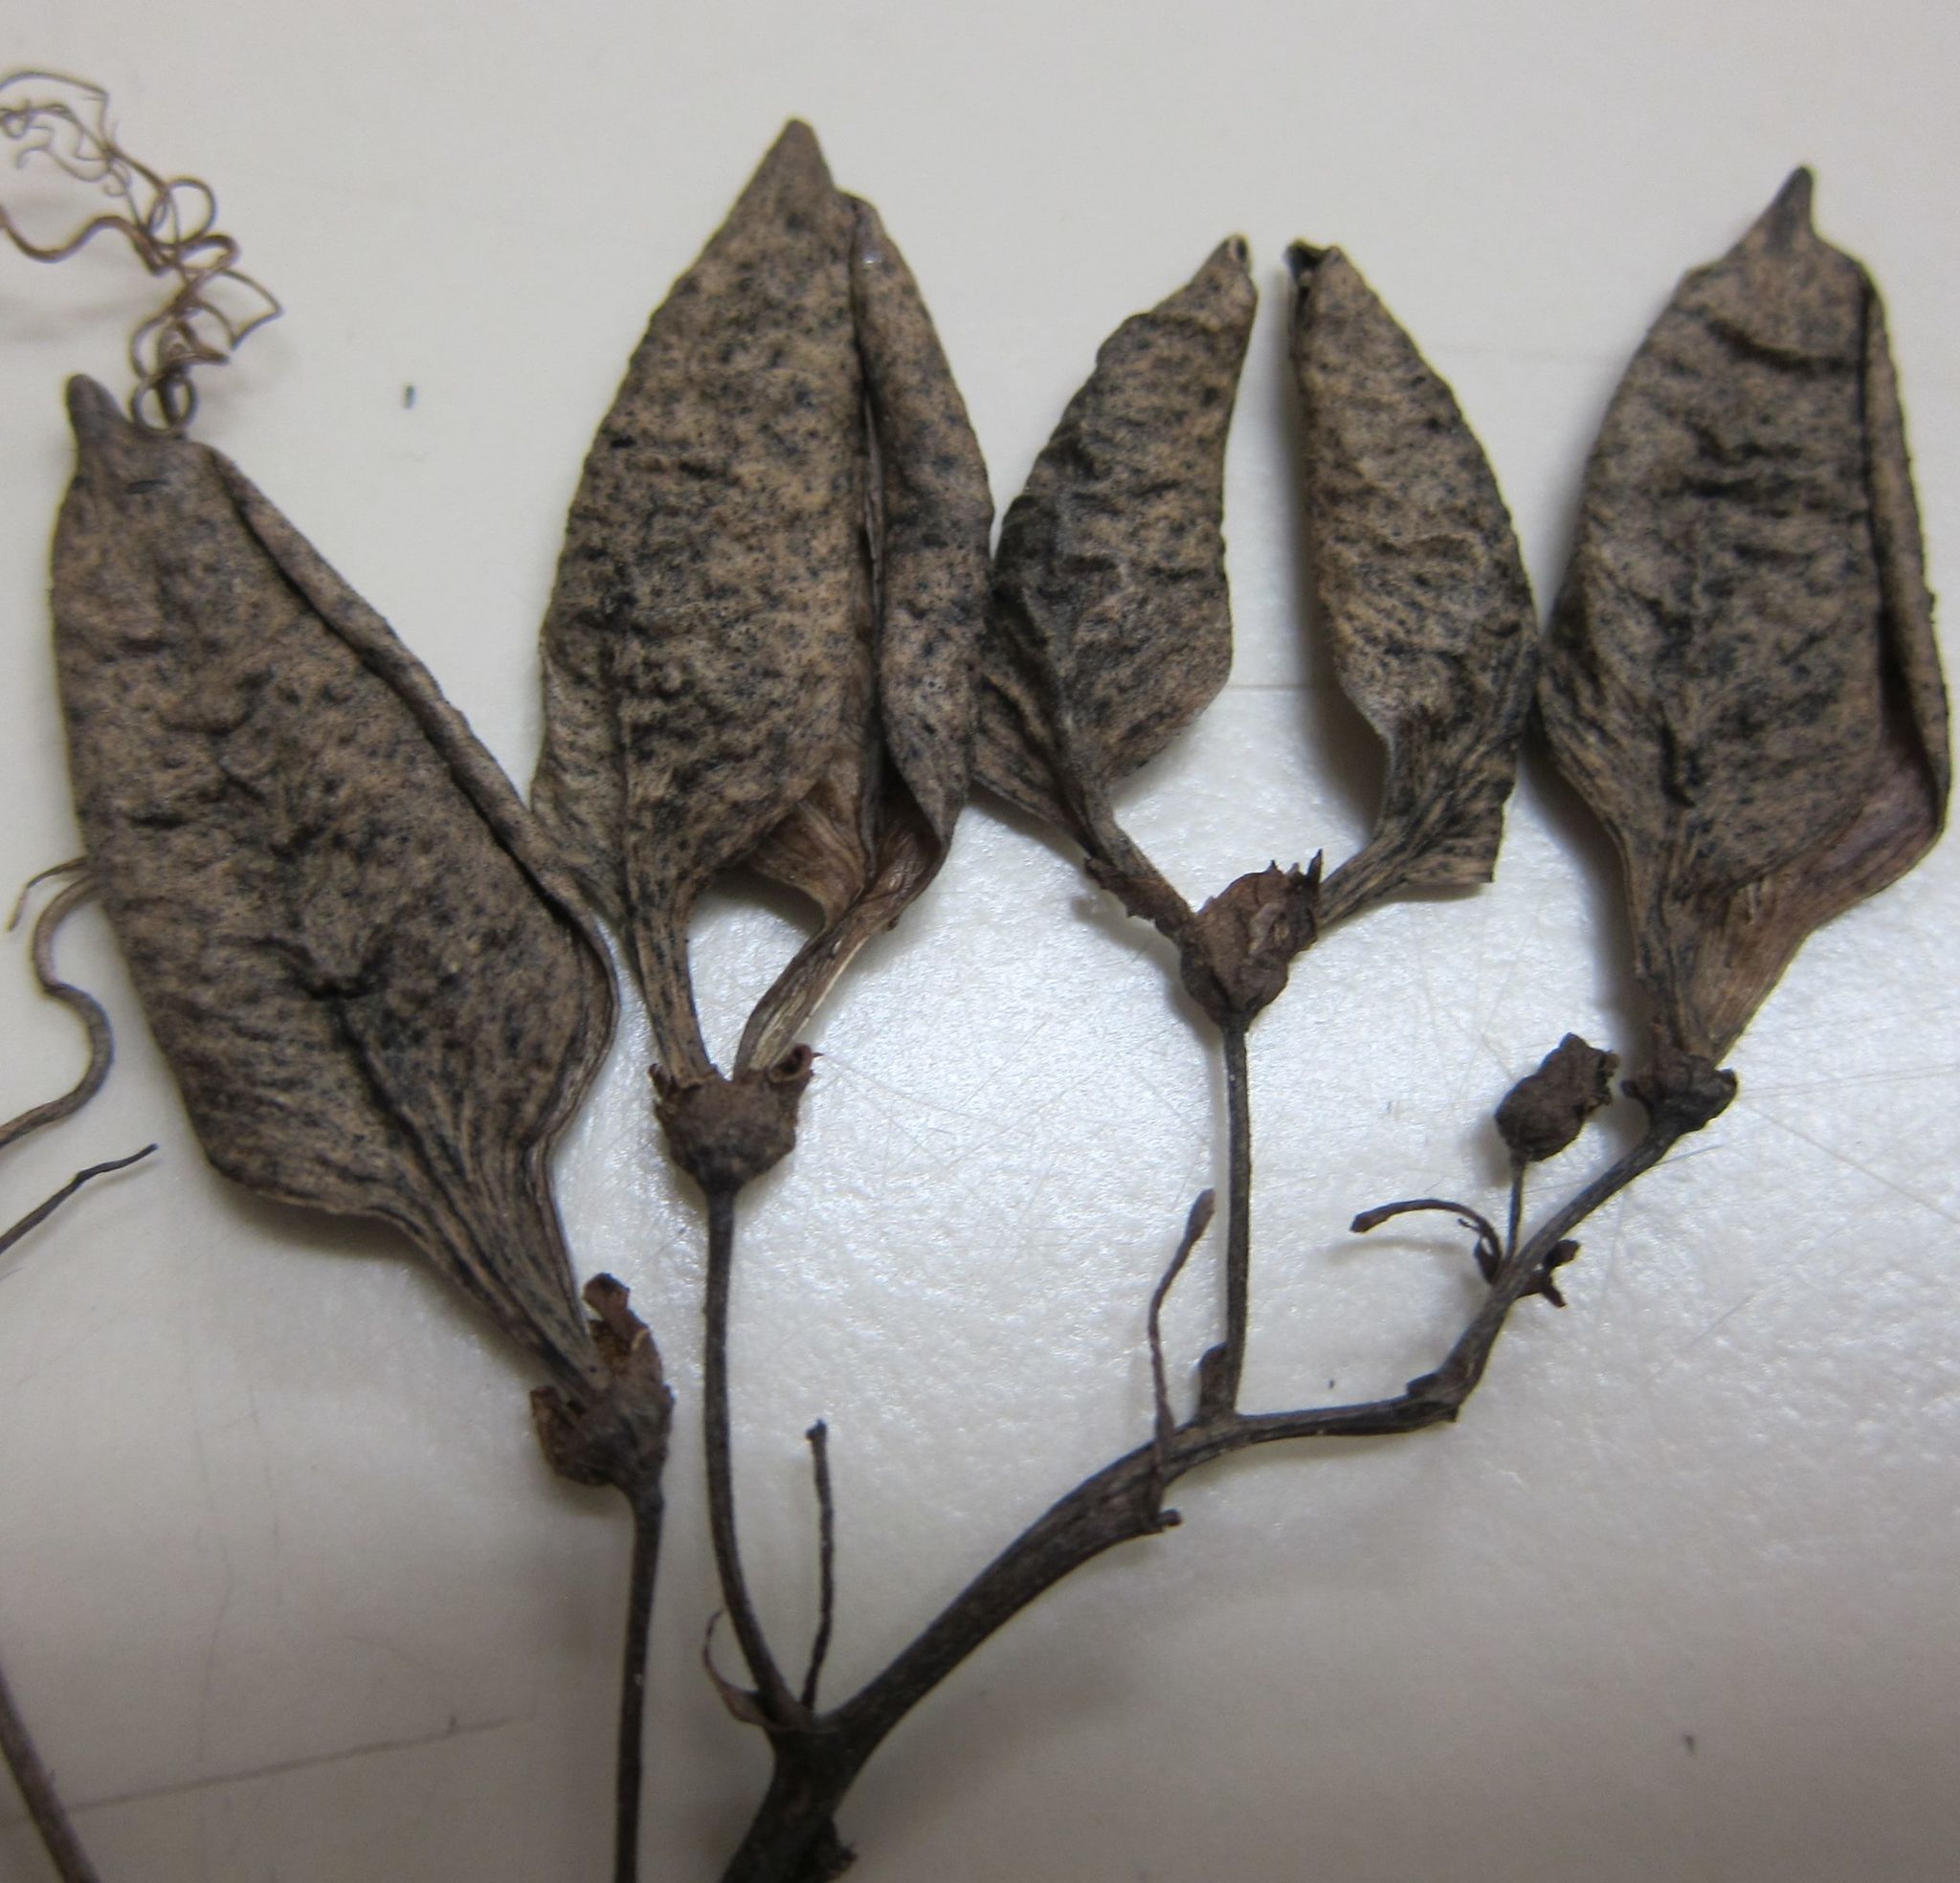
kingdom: Plantae
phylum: Tracheophyta
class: Magnoliopsida
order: Lamiales
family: Bignoniaceae
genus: Eccremocarpus
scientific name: Eccremocarpus scaber
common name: Chilean glory-flower
